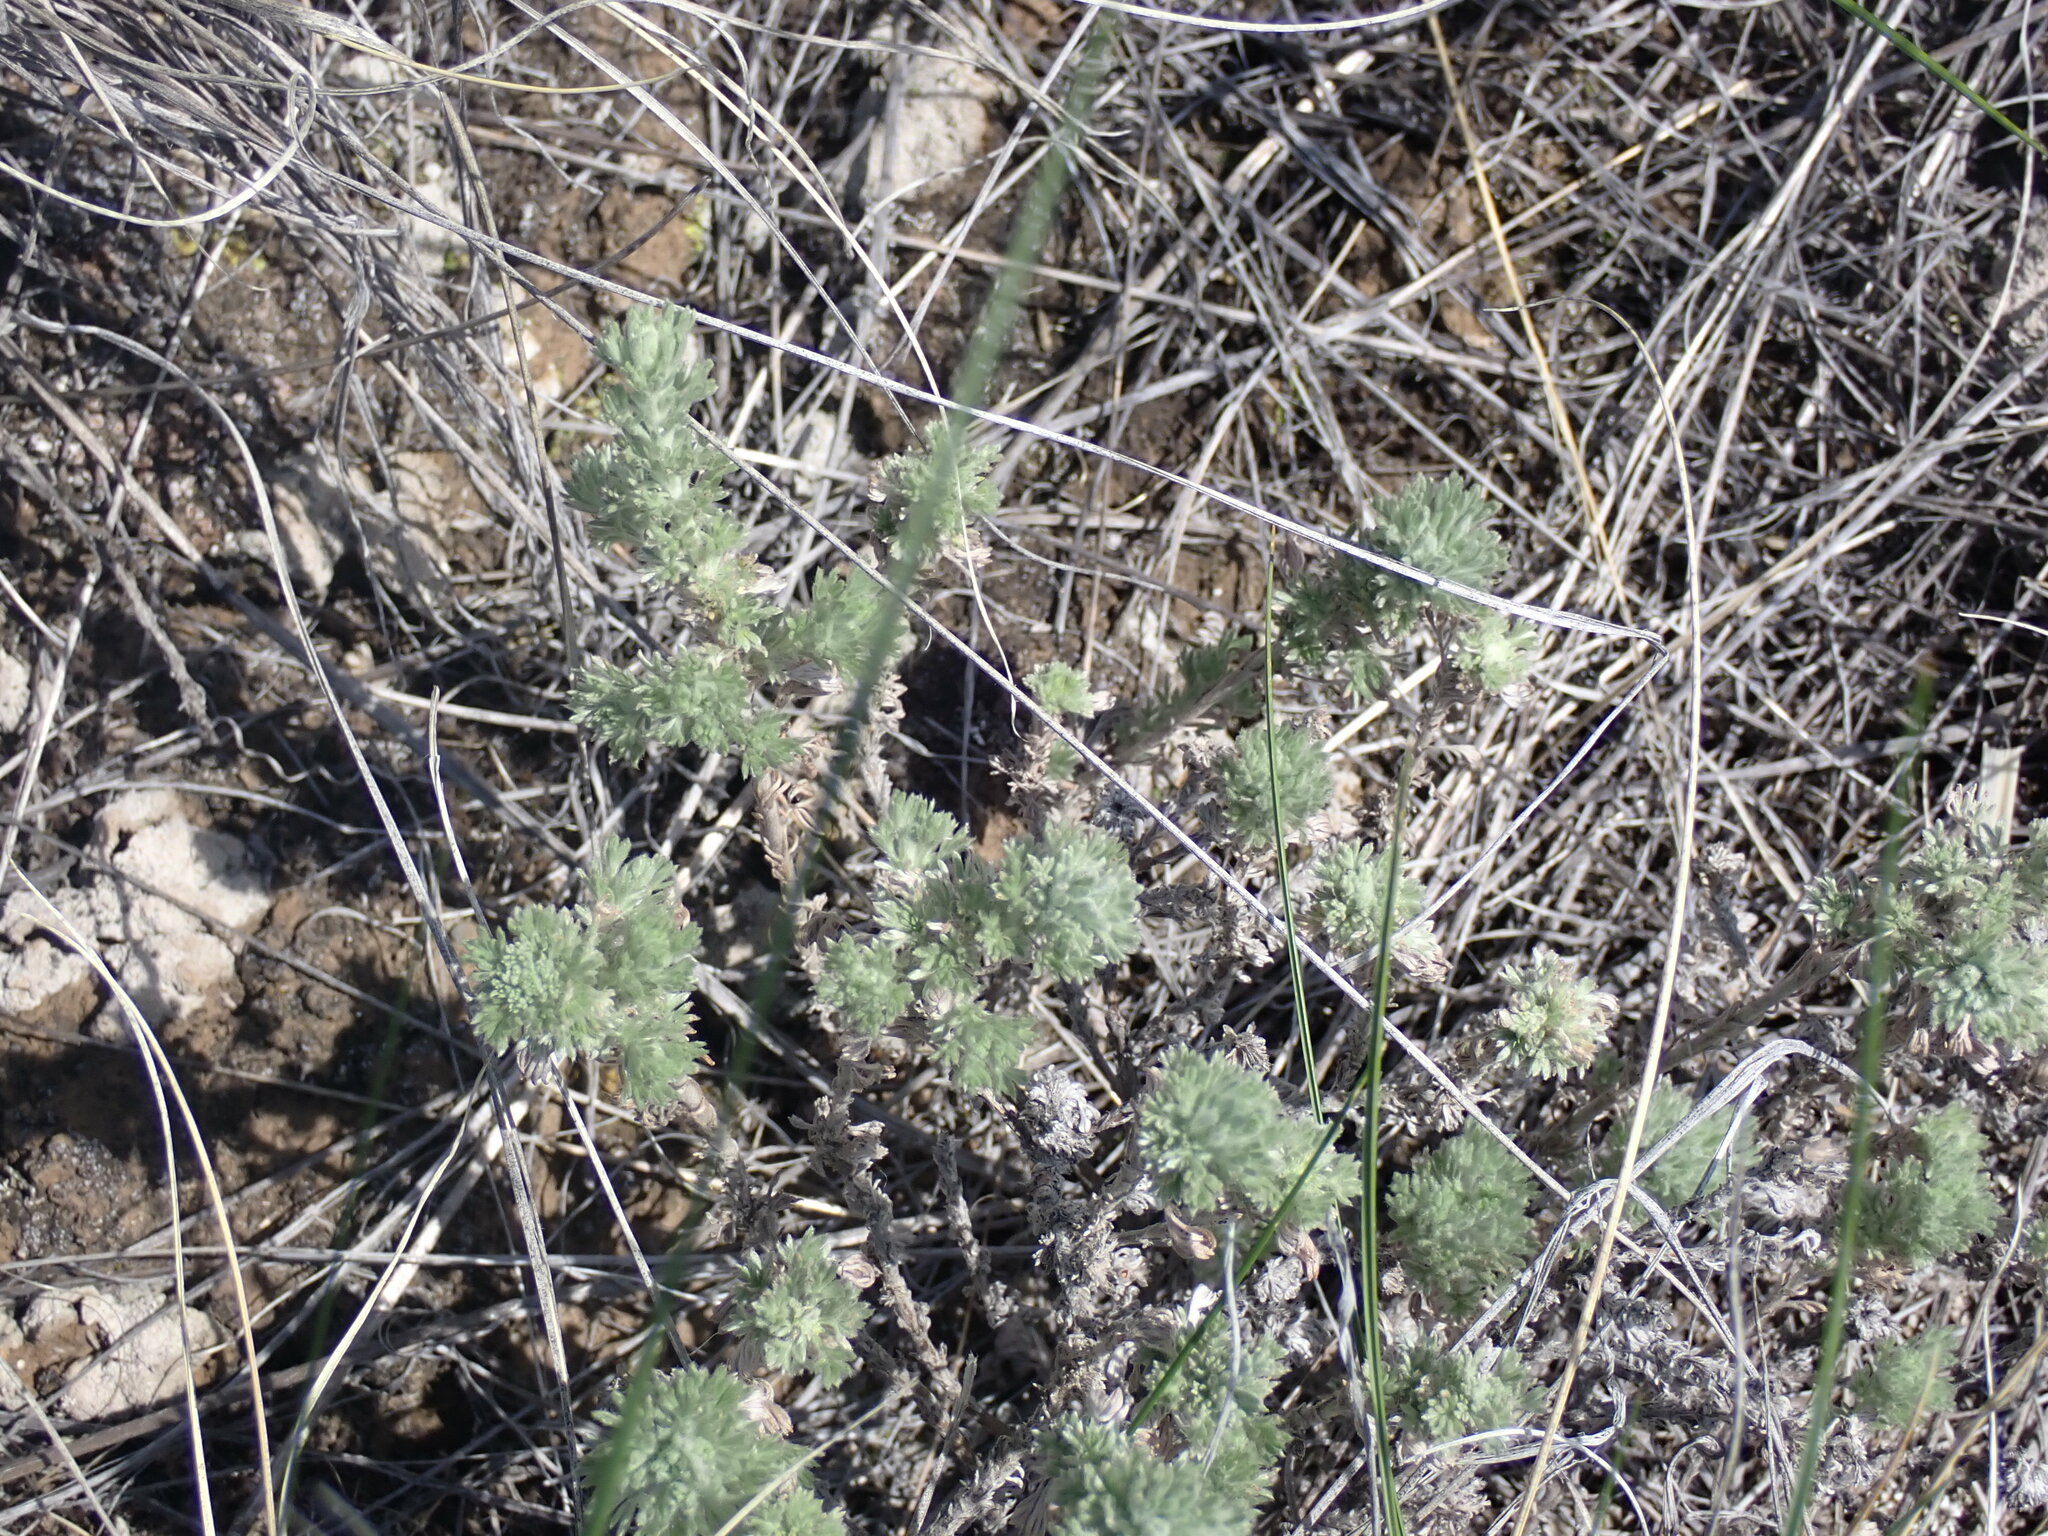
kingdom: Plantae
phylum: Tracheophyta
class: Magnoliopsida
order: Asterales
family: Asteraceae
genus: Artemisia
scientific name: Artemisia frigida
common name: Prairie sagewort
